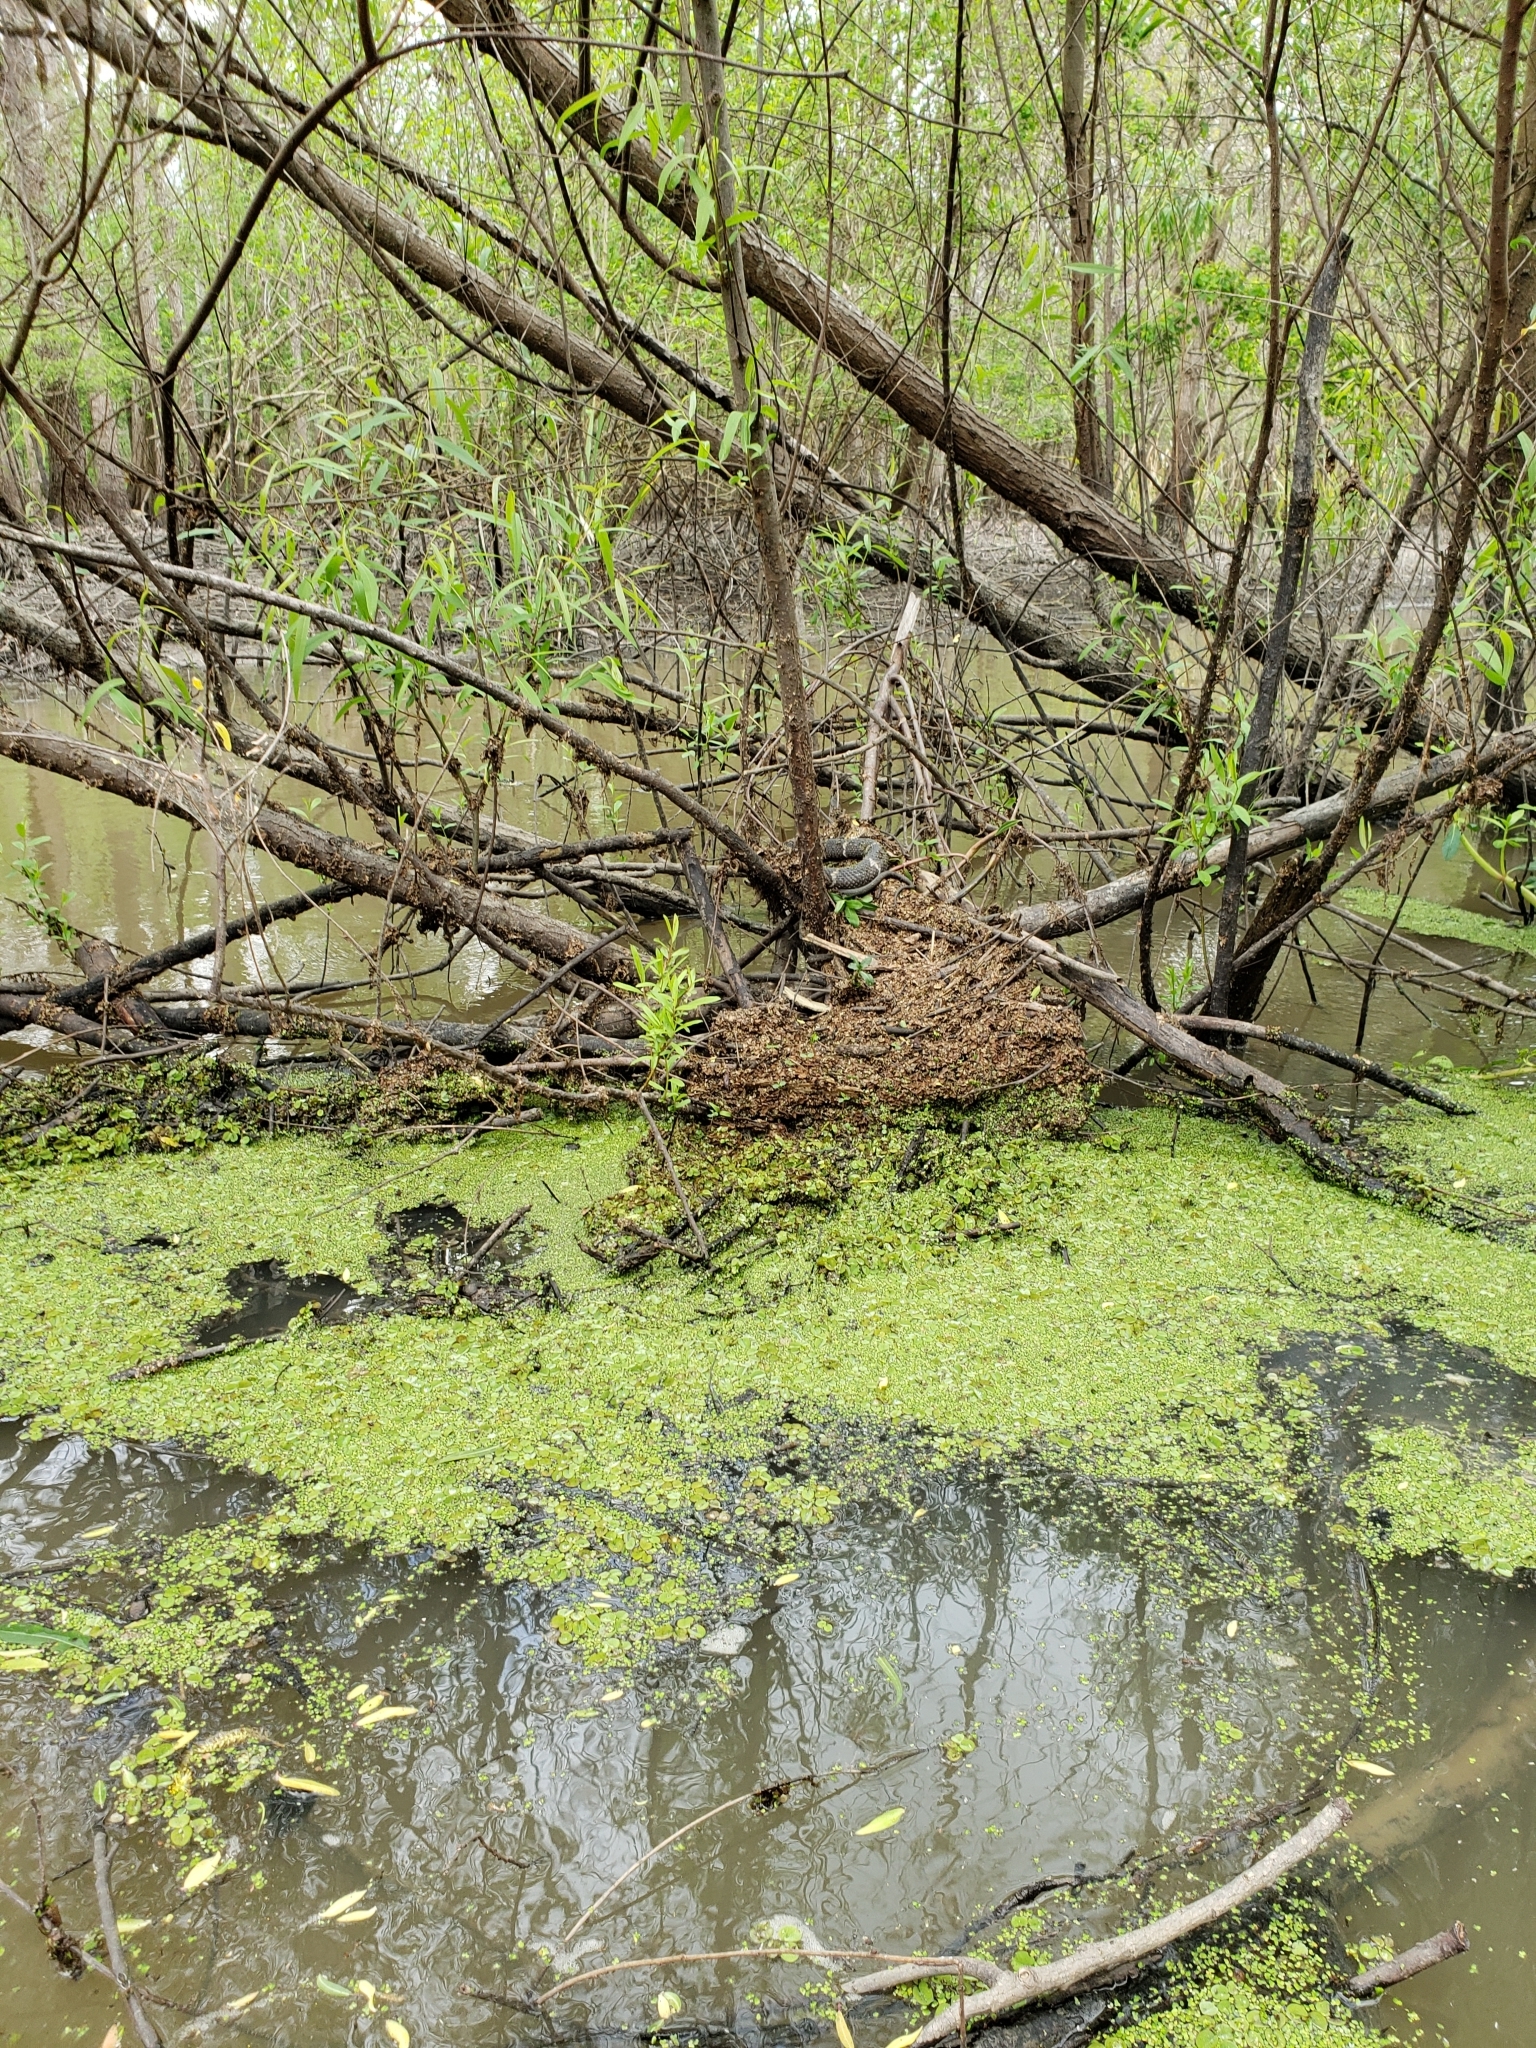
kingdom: Animalia
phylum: Chordata
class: Squamata
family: Colubridae
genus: Nerodia
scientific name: Nerodia fasciata
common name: Southern water snake
